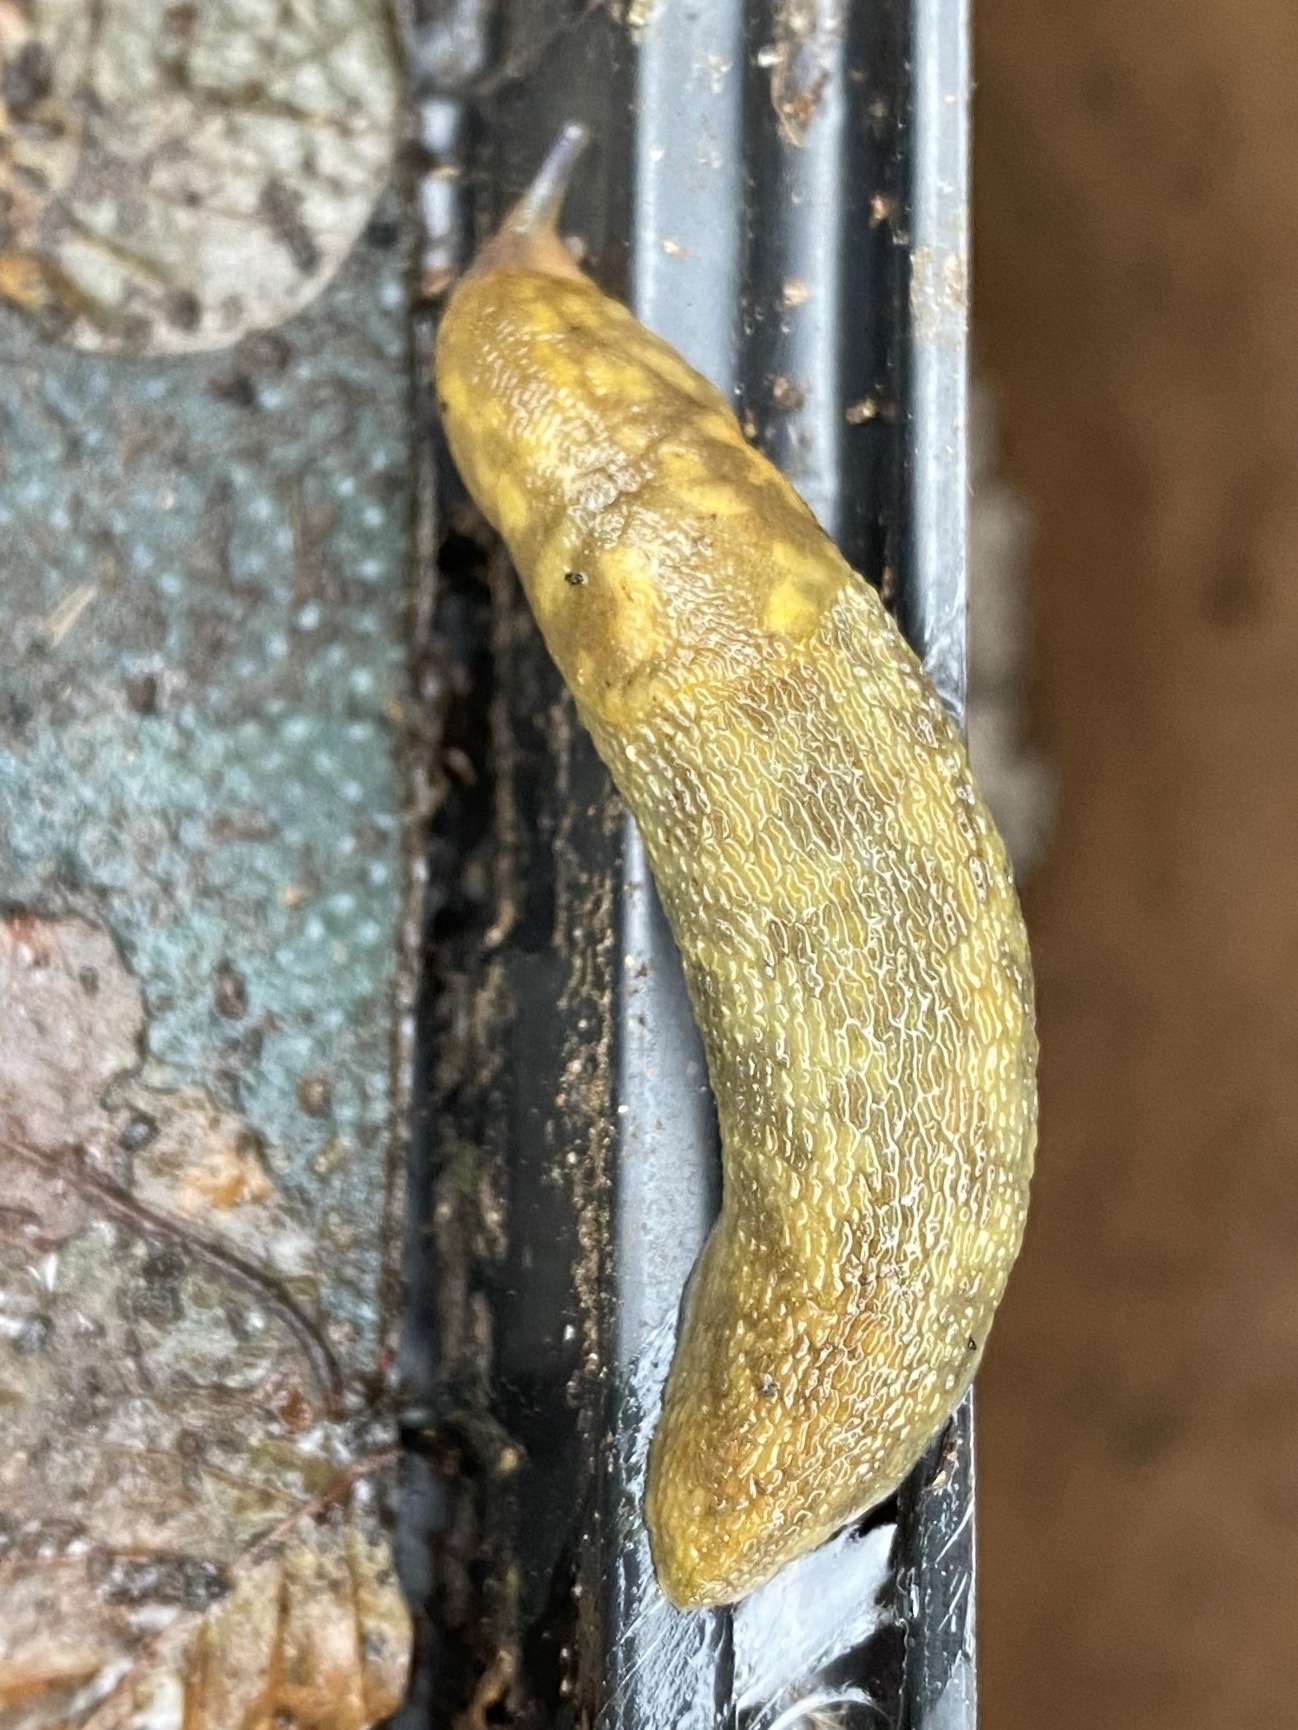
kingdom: Animalia
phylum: Mollusca
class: Gastropoda
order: Stylommatophora
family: Limacidae
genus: Limacus
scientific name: Limacus maculatus
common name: Irish yellow slug
